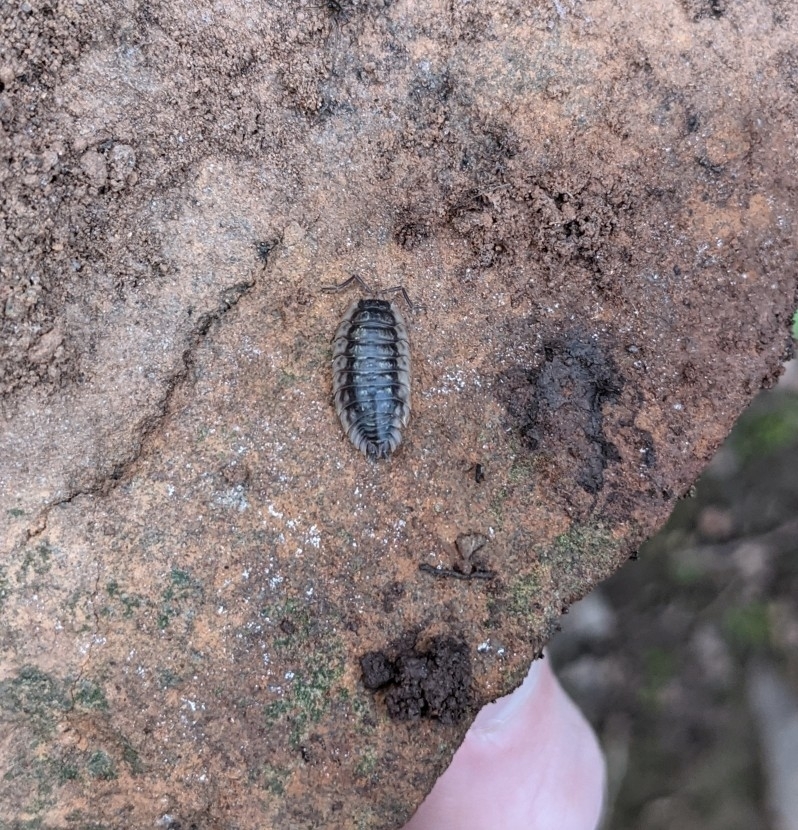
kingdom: Animalia
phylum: Arthropoda
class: Malacostraca
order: Isopoda
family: Oniscidae
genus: Oniscus
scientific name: Oniscus asellus
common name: Common shiny woodlouse
